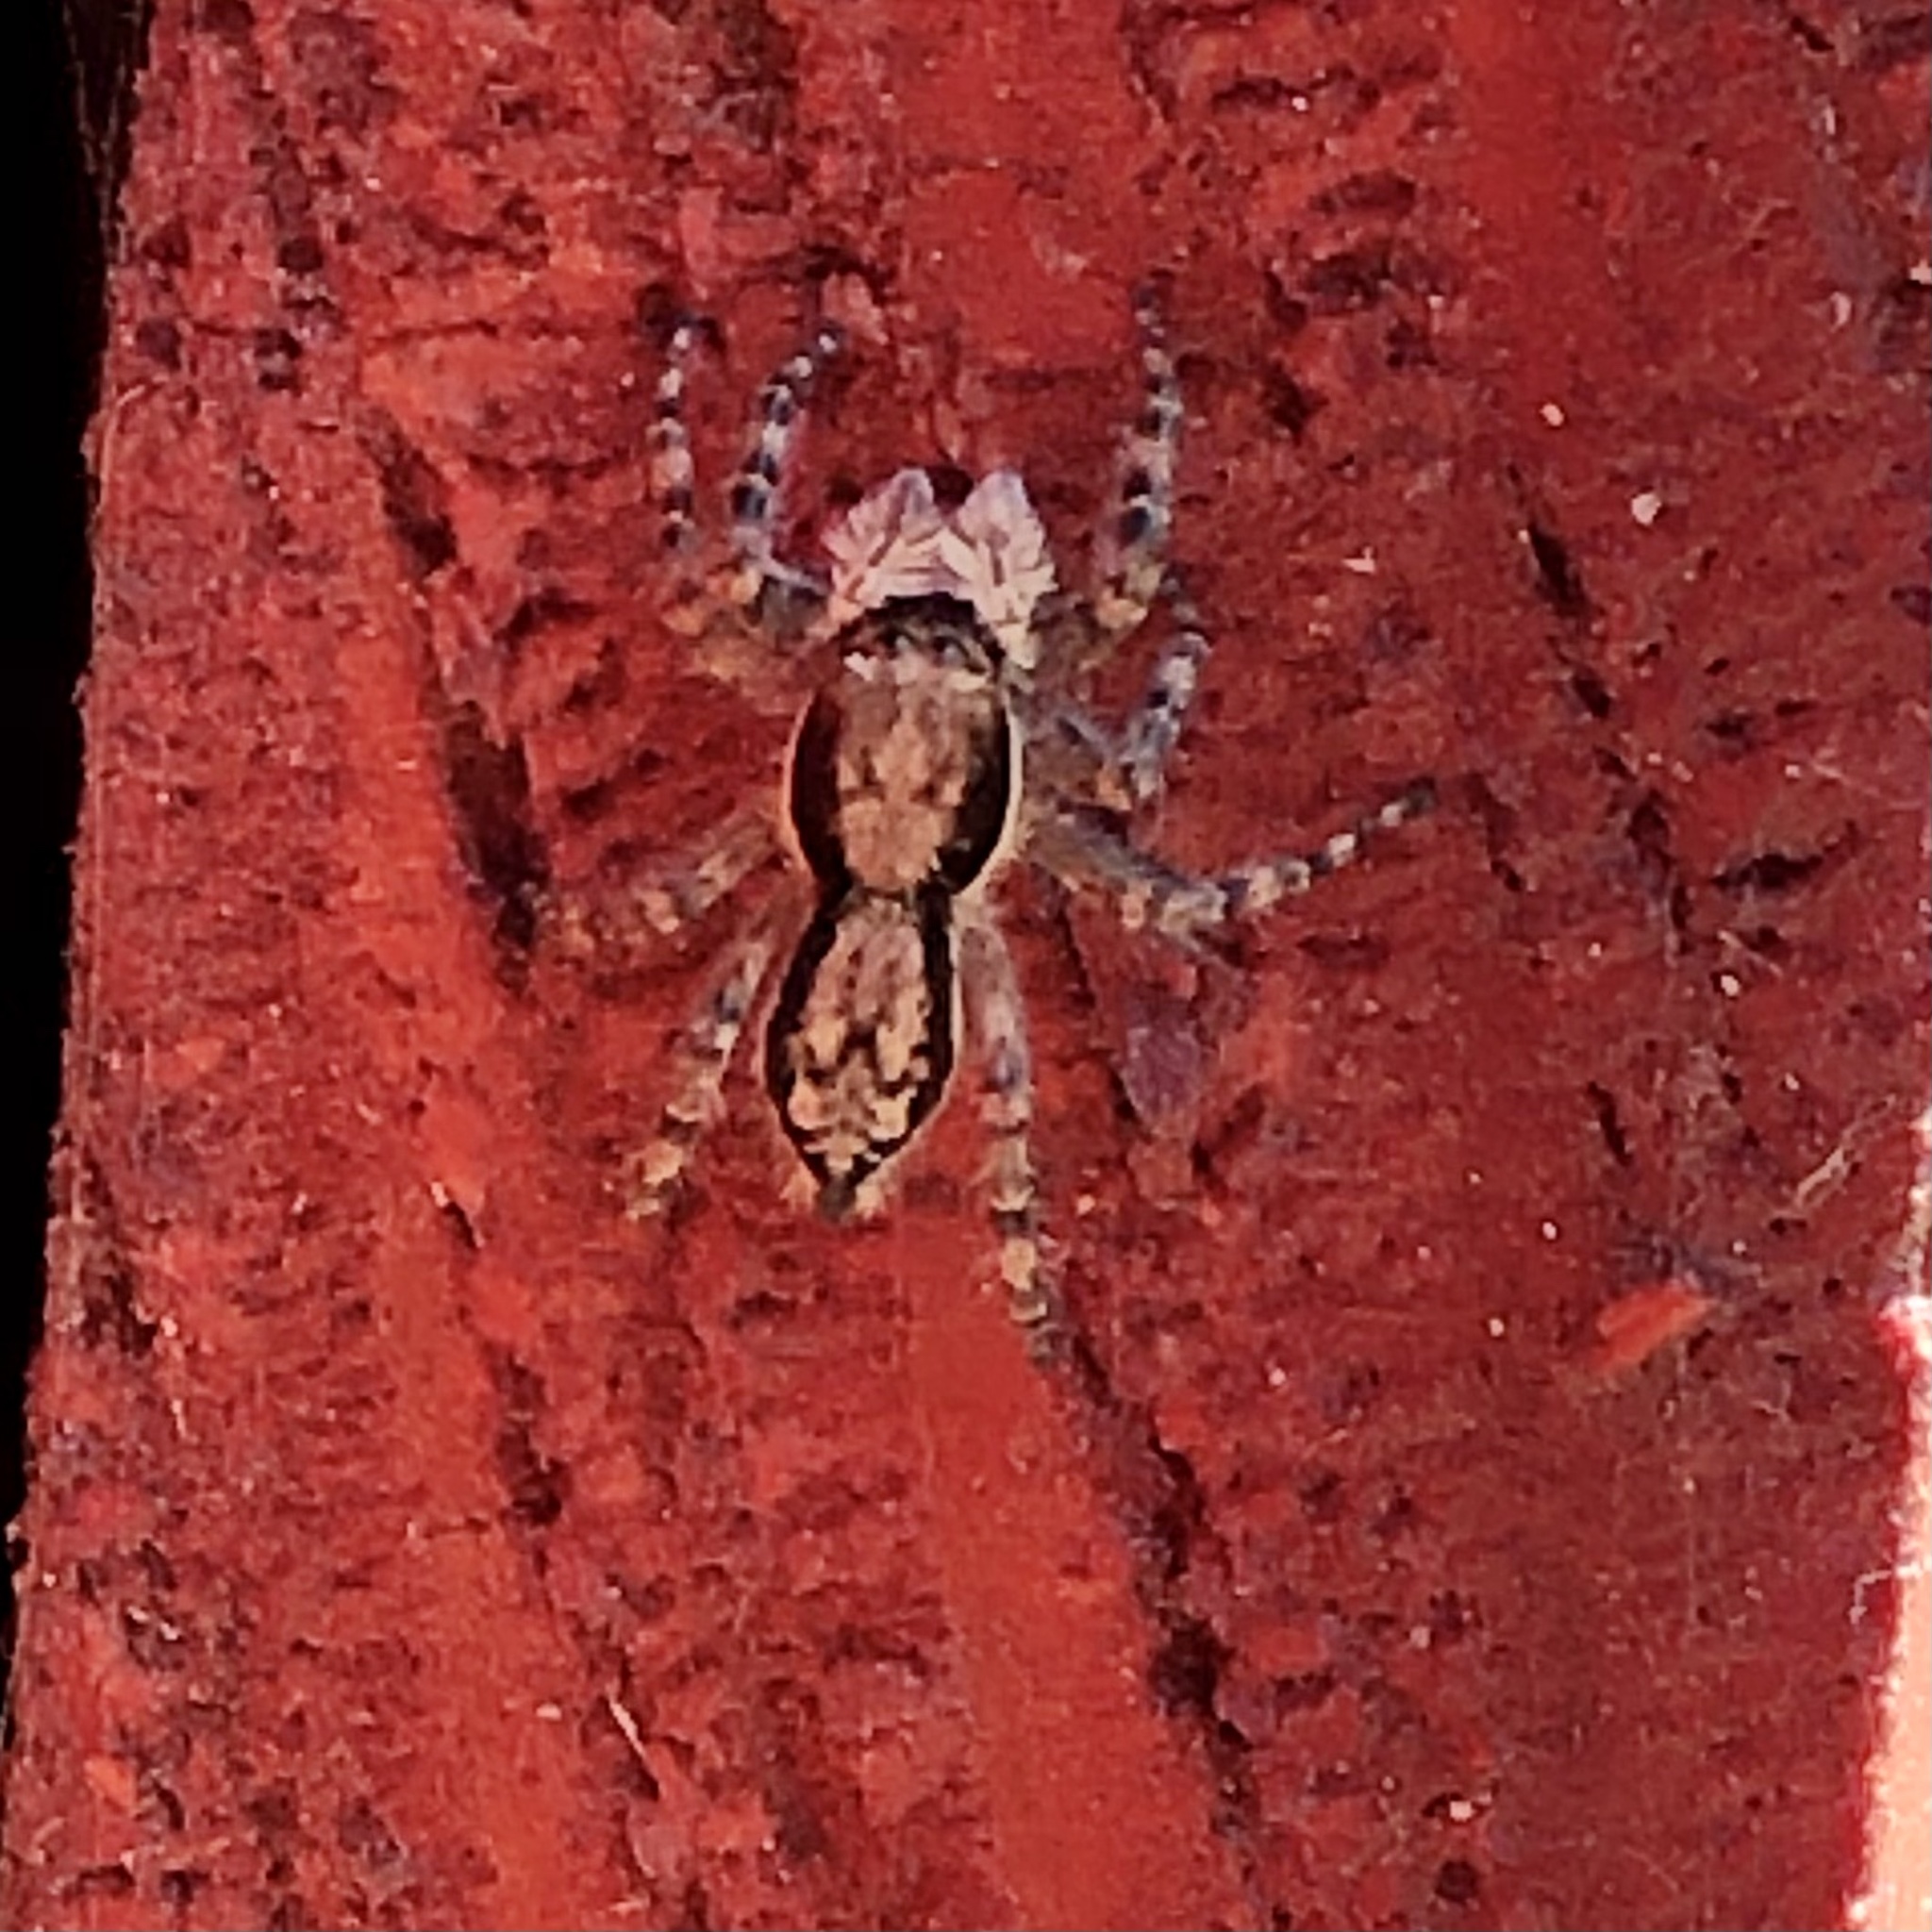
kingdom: Animalia
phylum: Arthropoda
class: Arachnida
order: Araneae
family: Salticidae
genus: Menemerus
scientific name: Menemerus bivittatus
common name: Gray wall jumper
